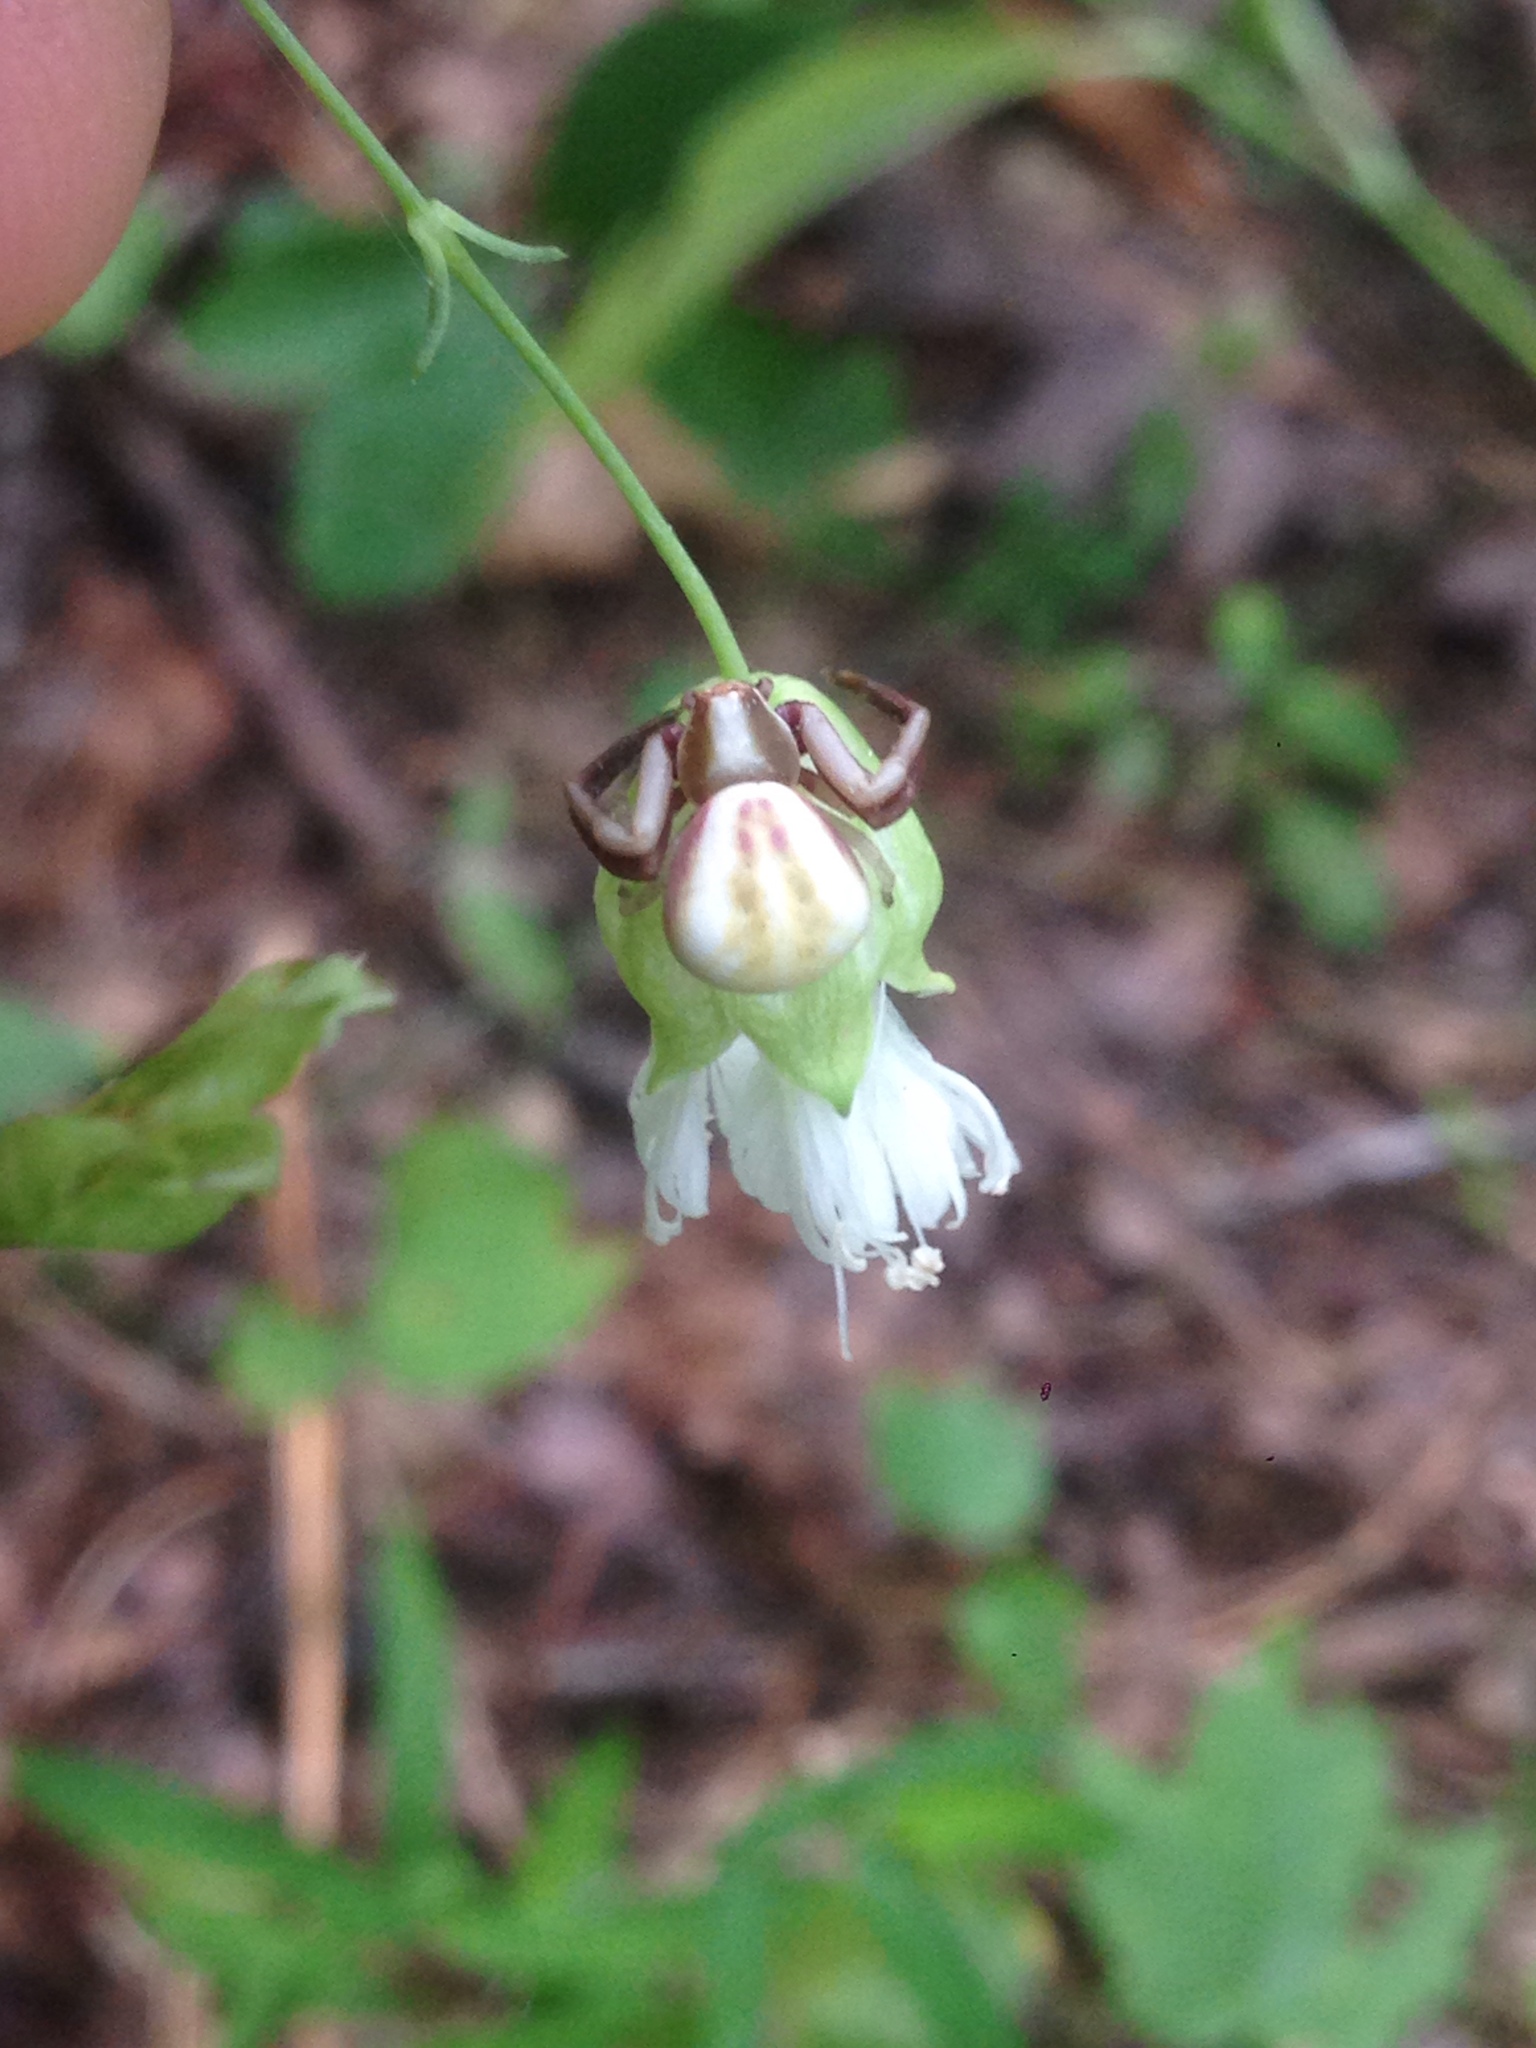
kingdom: Animalia
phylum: Arthropoda
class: Arachnida
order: Araneae
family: Thomisidae
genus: Misumenoides
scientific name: Misumenoides formosipes
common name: White-banded crab spider
